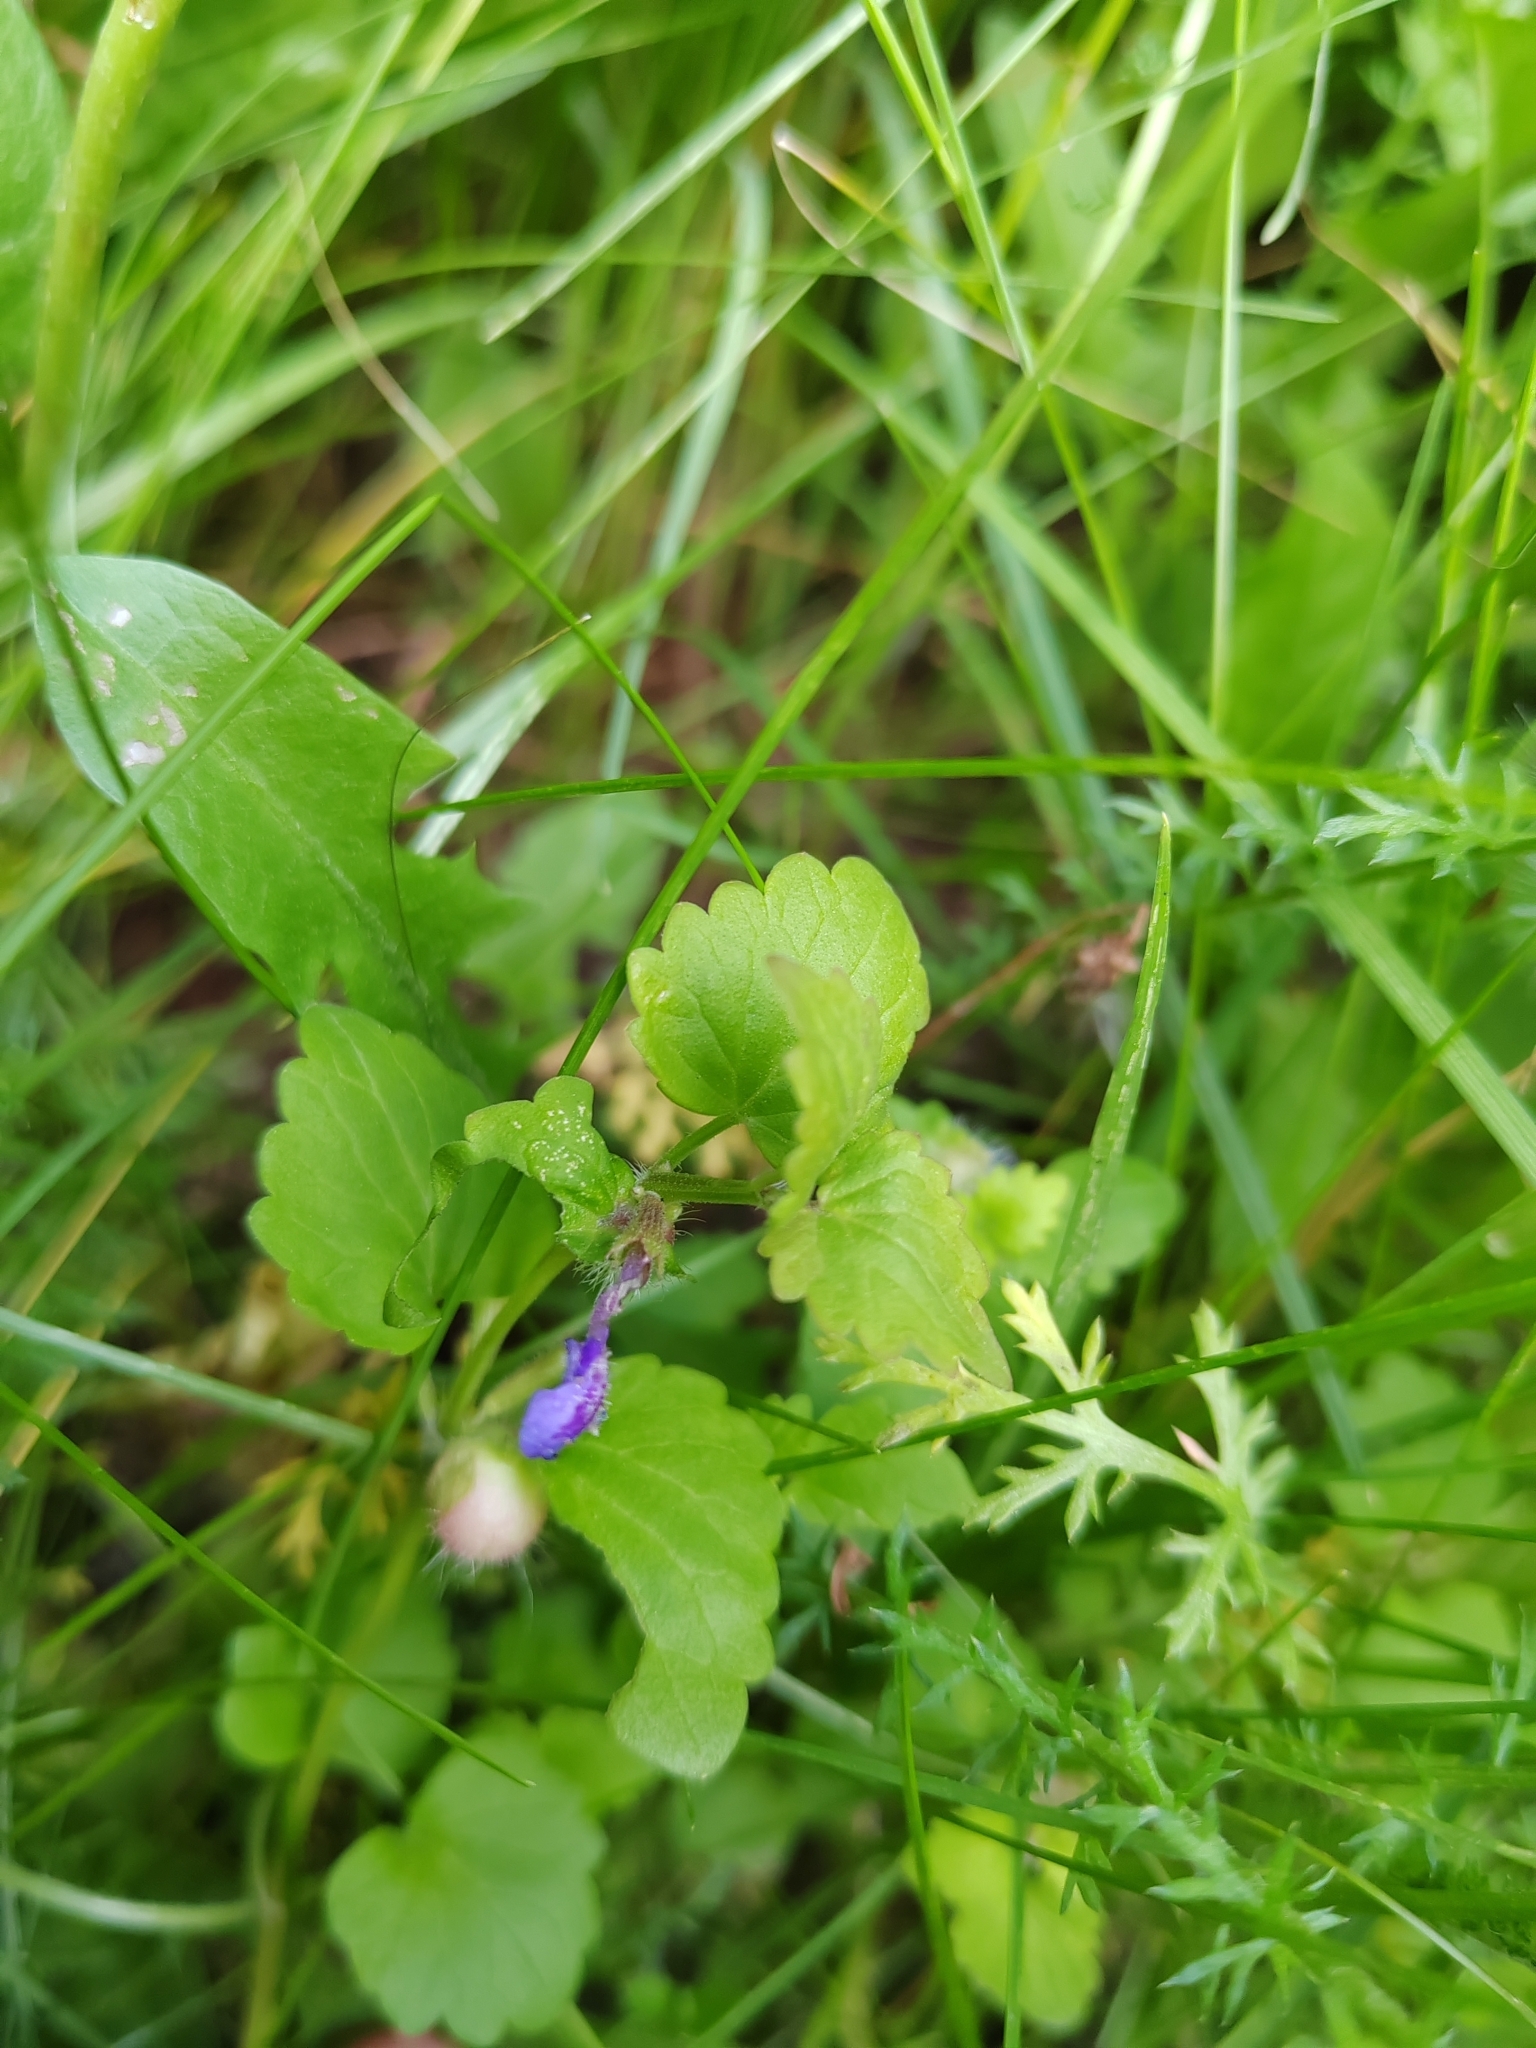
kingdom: Plantae
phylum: Tracheophyta
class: Magnoliopsida
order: Lamiales
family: Lamiaceae
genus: Glechoma
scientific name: Glechoma hederacea
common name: Ground ivy
